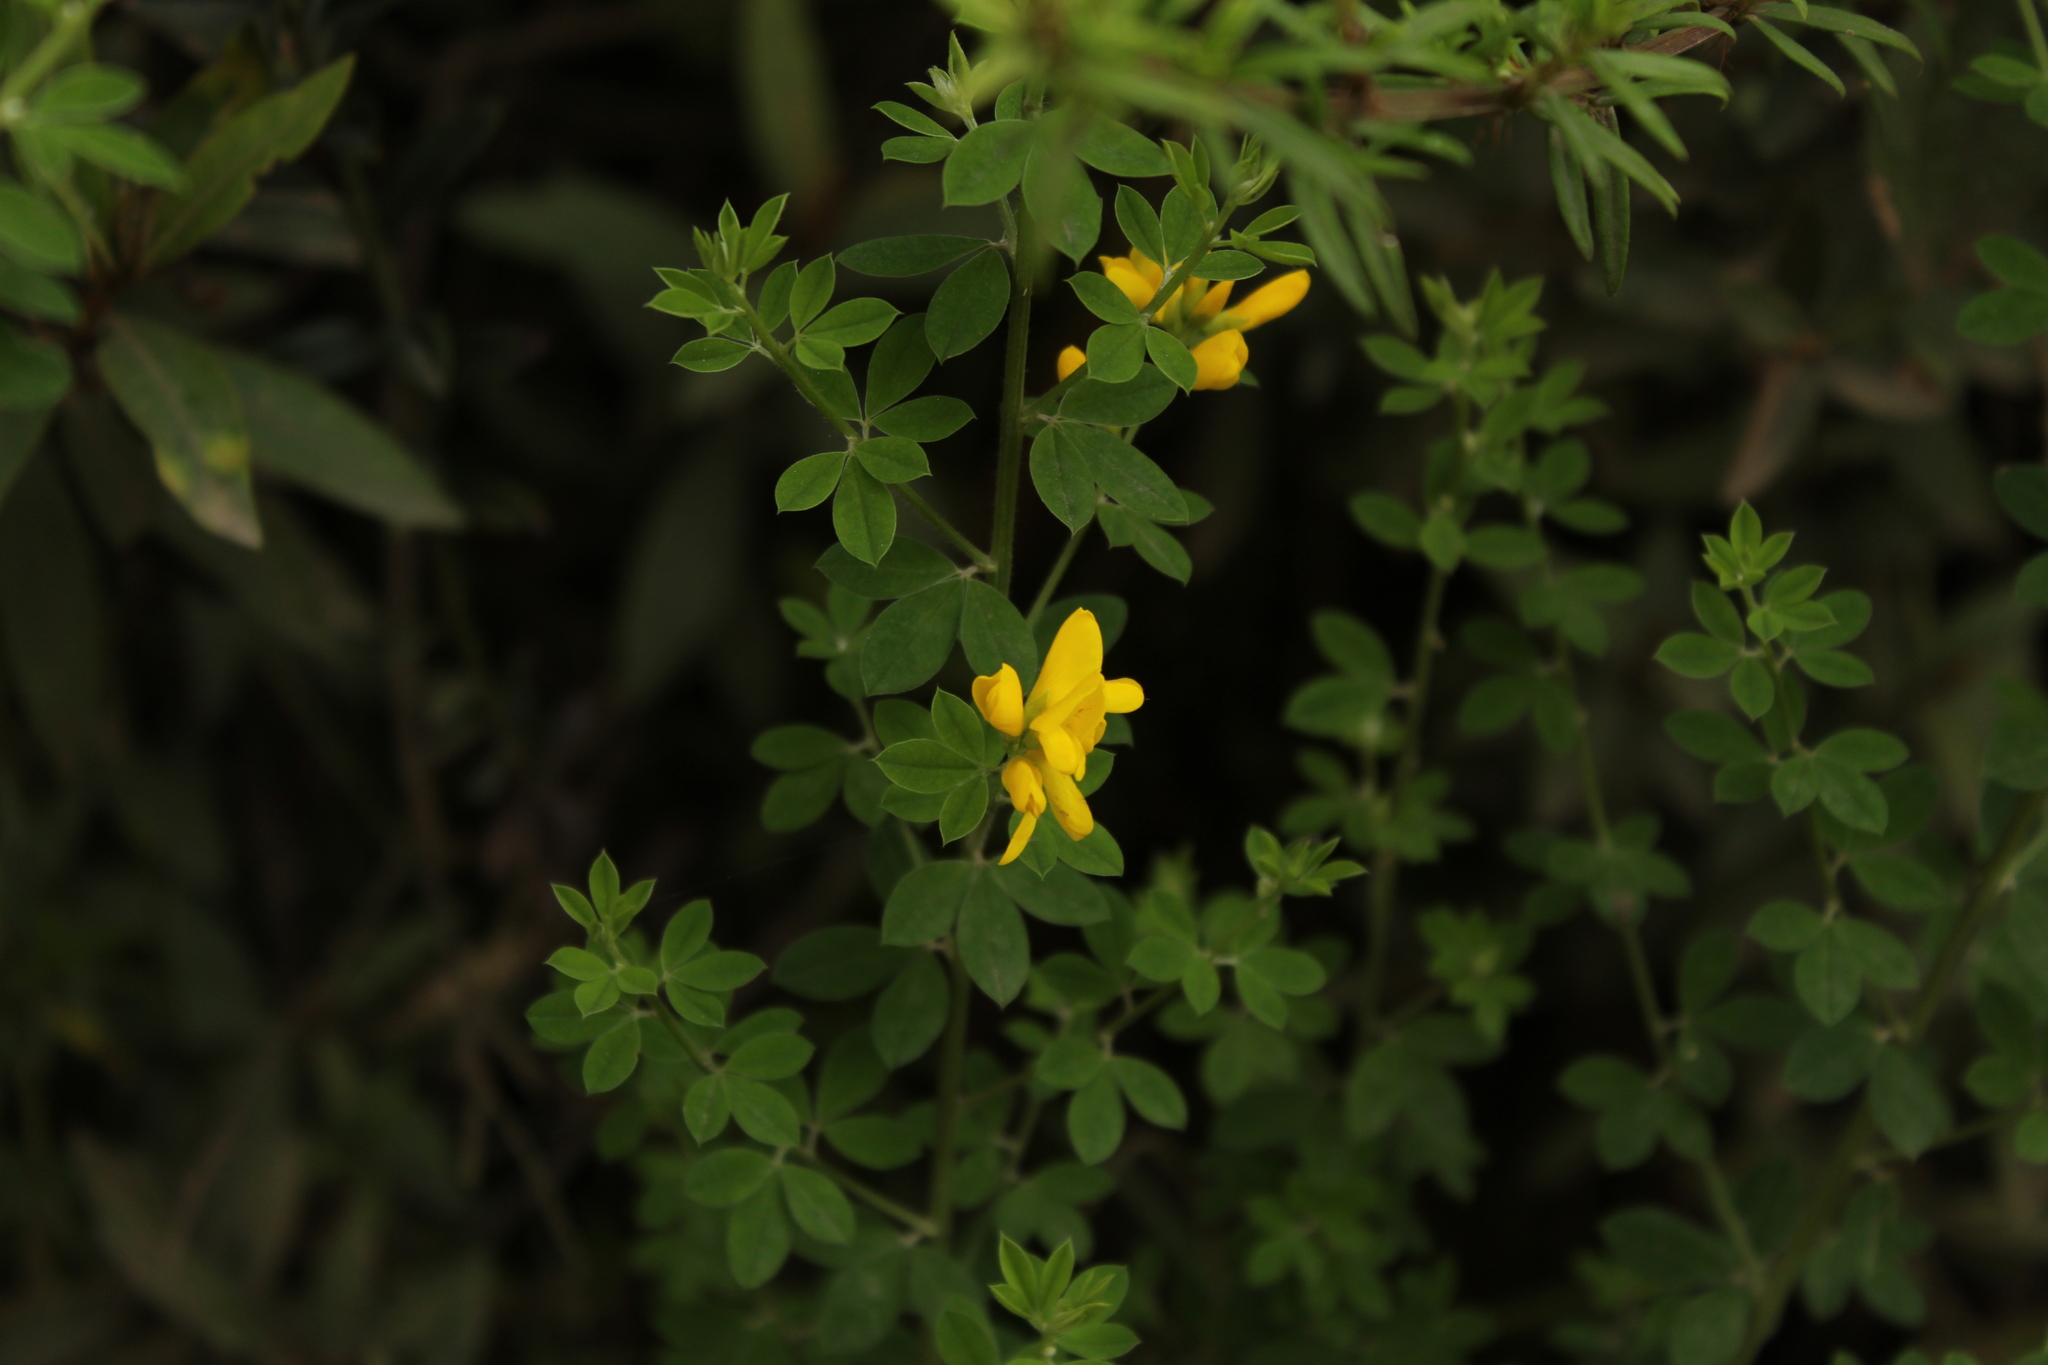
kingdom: Plantae
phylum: Tracheophyta
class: Magnoliopsida
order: Fabales
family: Fabaceae
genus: Genista
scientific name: Genista monspessulana
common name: Montpellier broom
